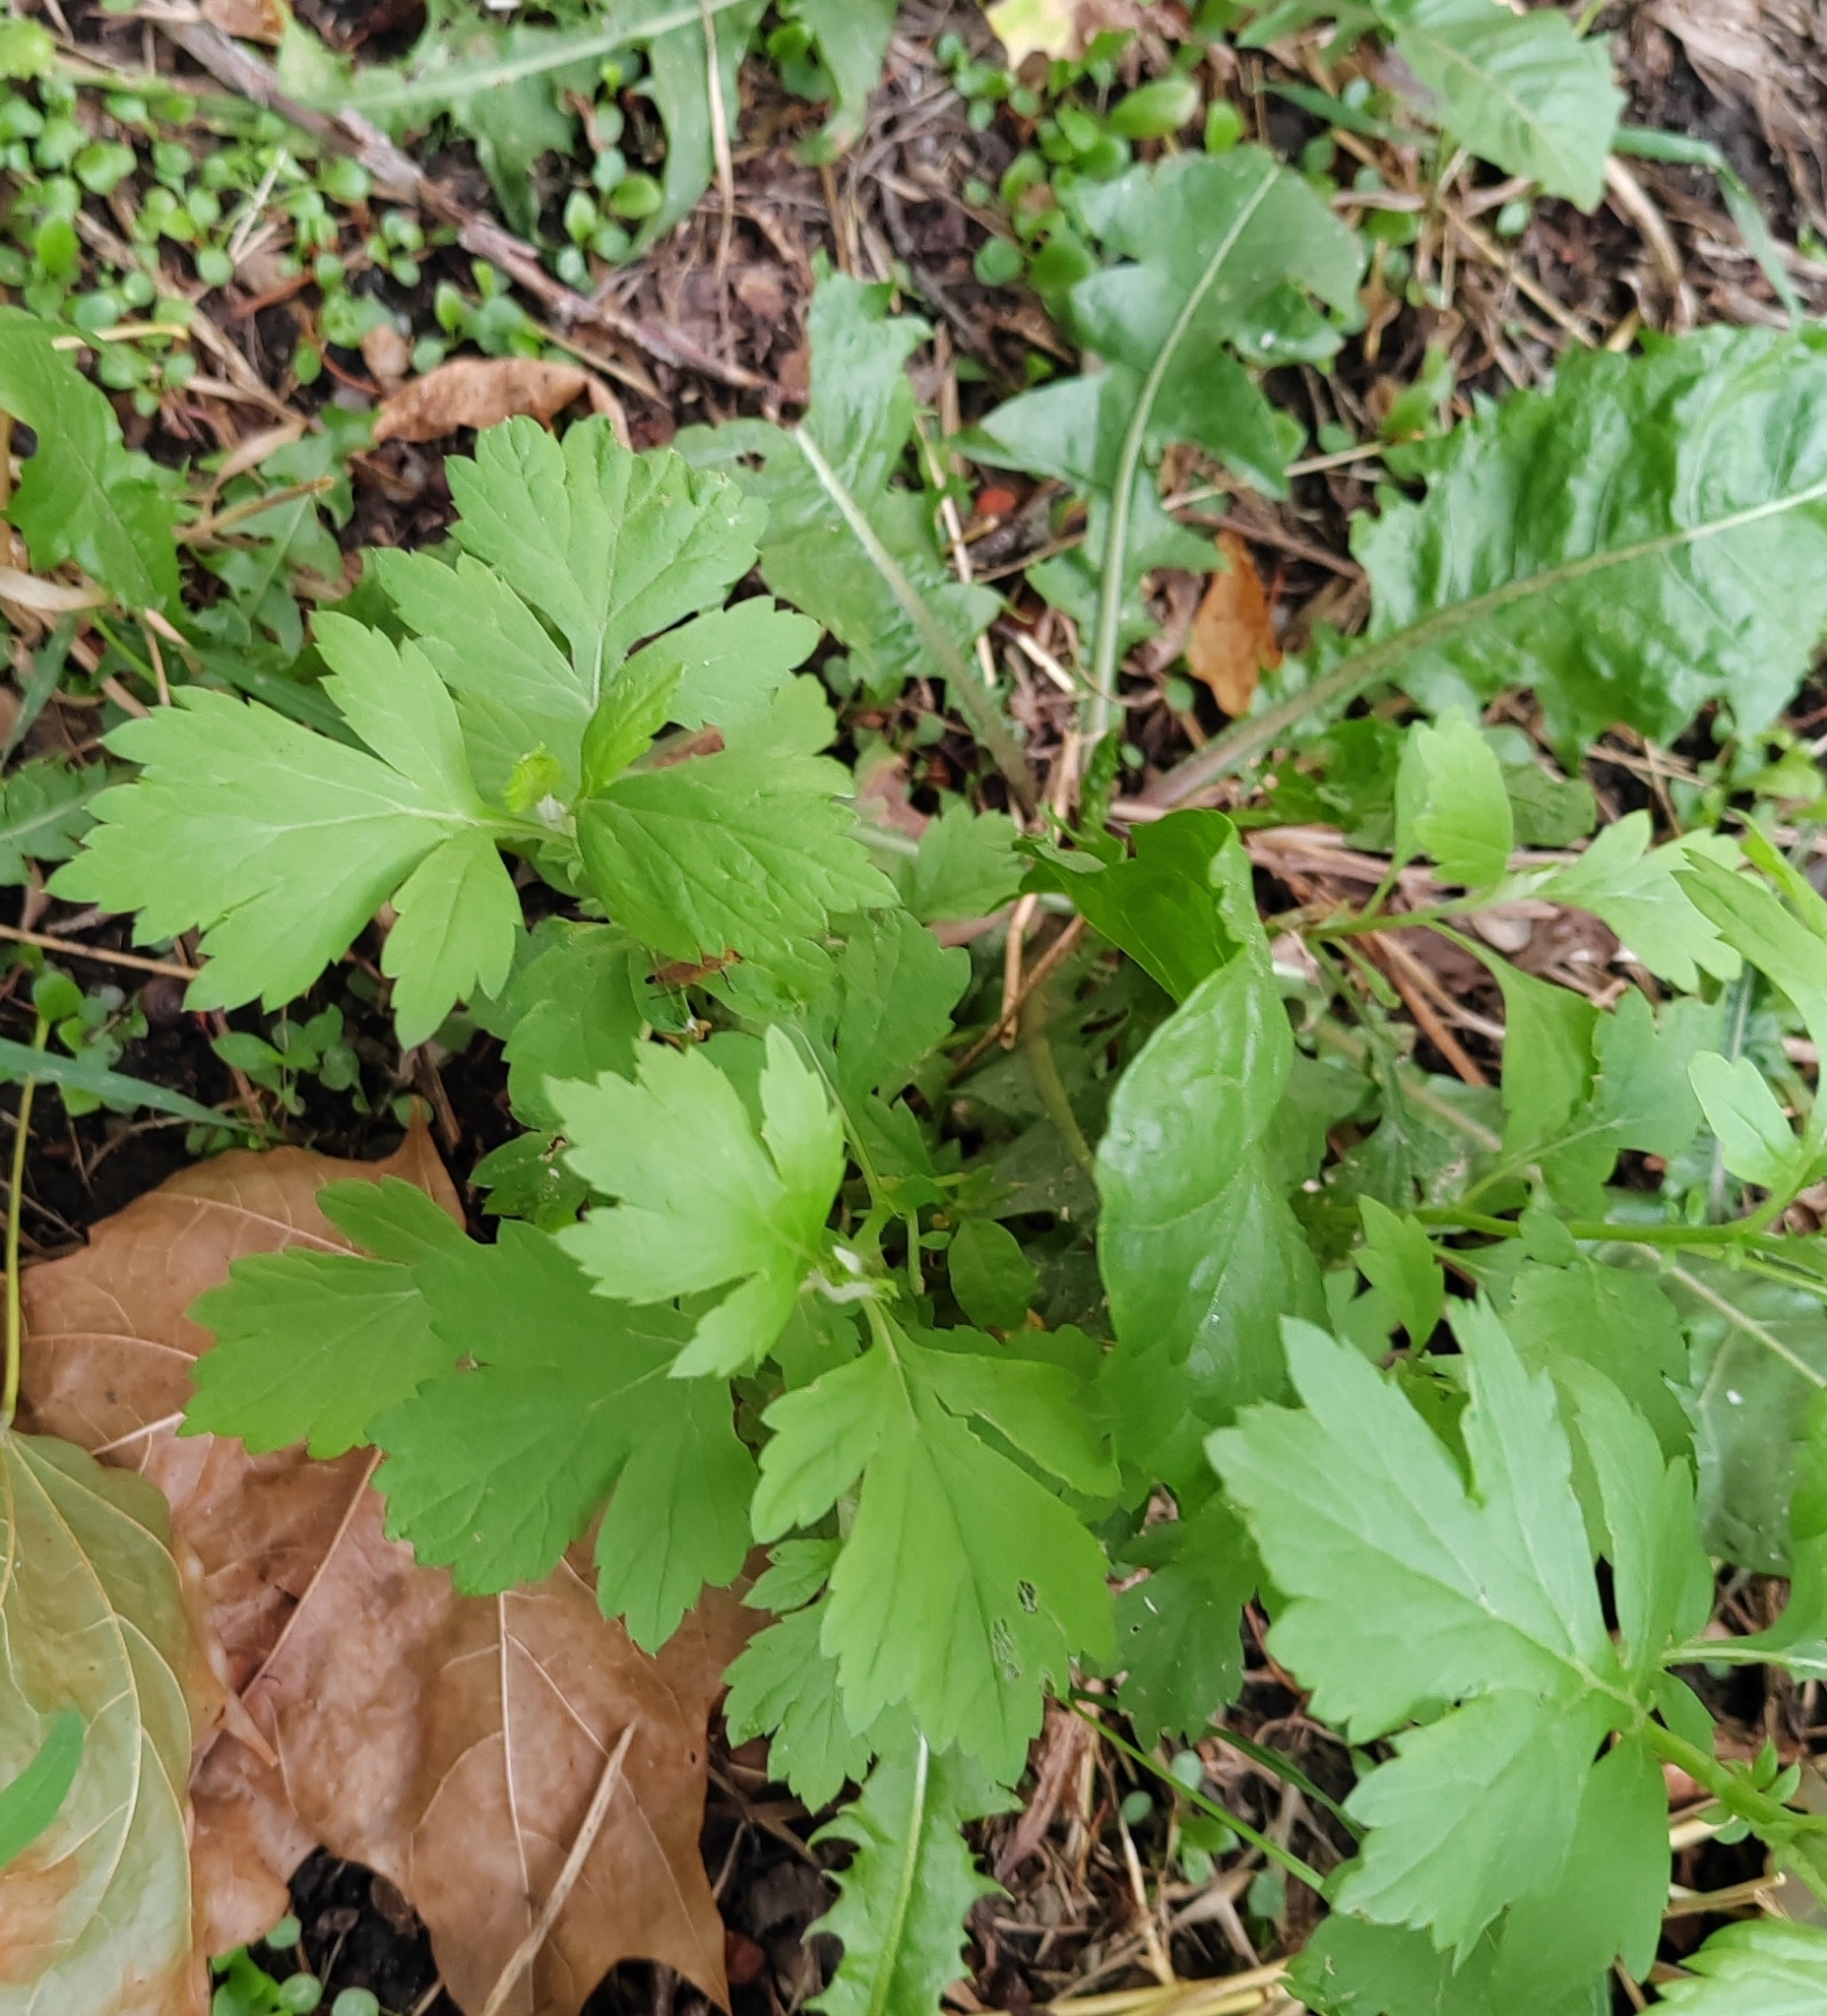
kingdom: Plantae
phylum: Tracheophyta
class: Magnoliopsida
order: Asterales
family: Asteraceae
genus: Artemisia
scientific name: Artemisia vulgaris
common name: Mugwort
